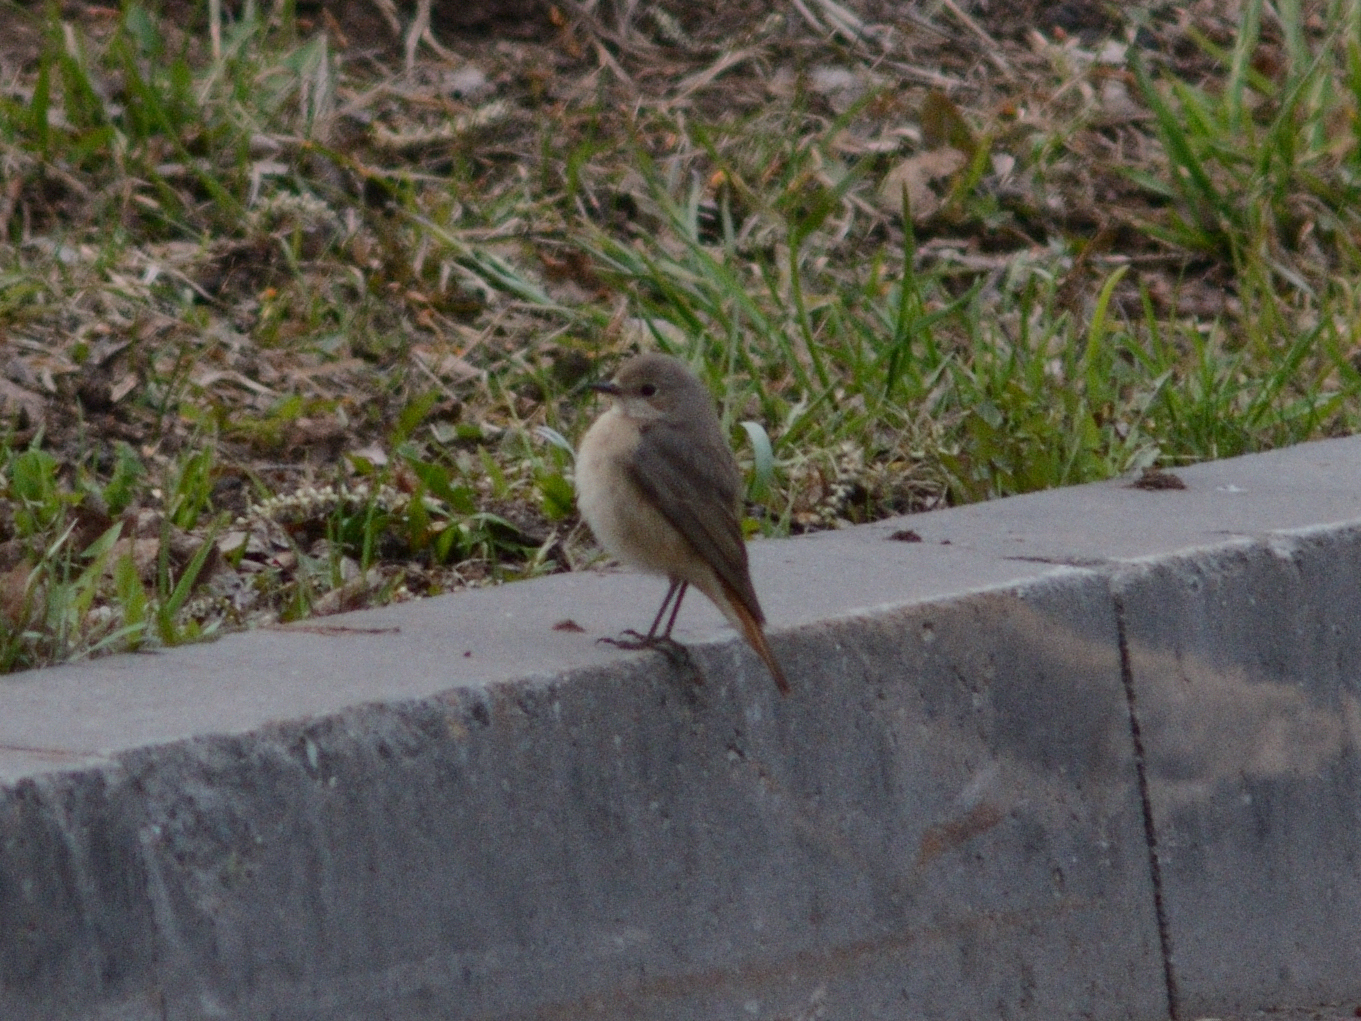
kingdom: Animalia
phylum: Chordata
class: Aves
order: Passeriformes
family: Muscicapidae
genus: Phoenicurus
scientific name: Phoenicurus phoenicurus
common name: Common redstart
